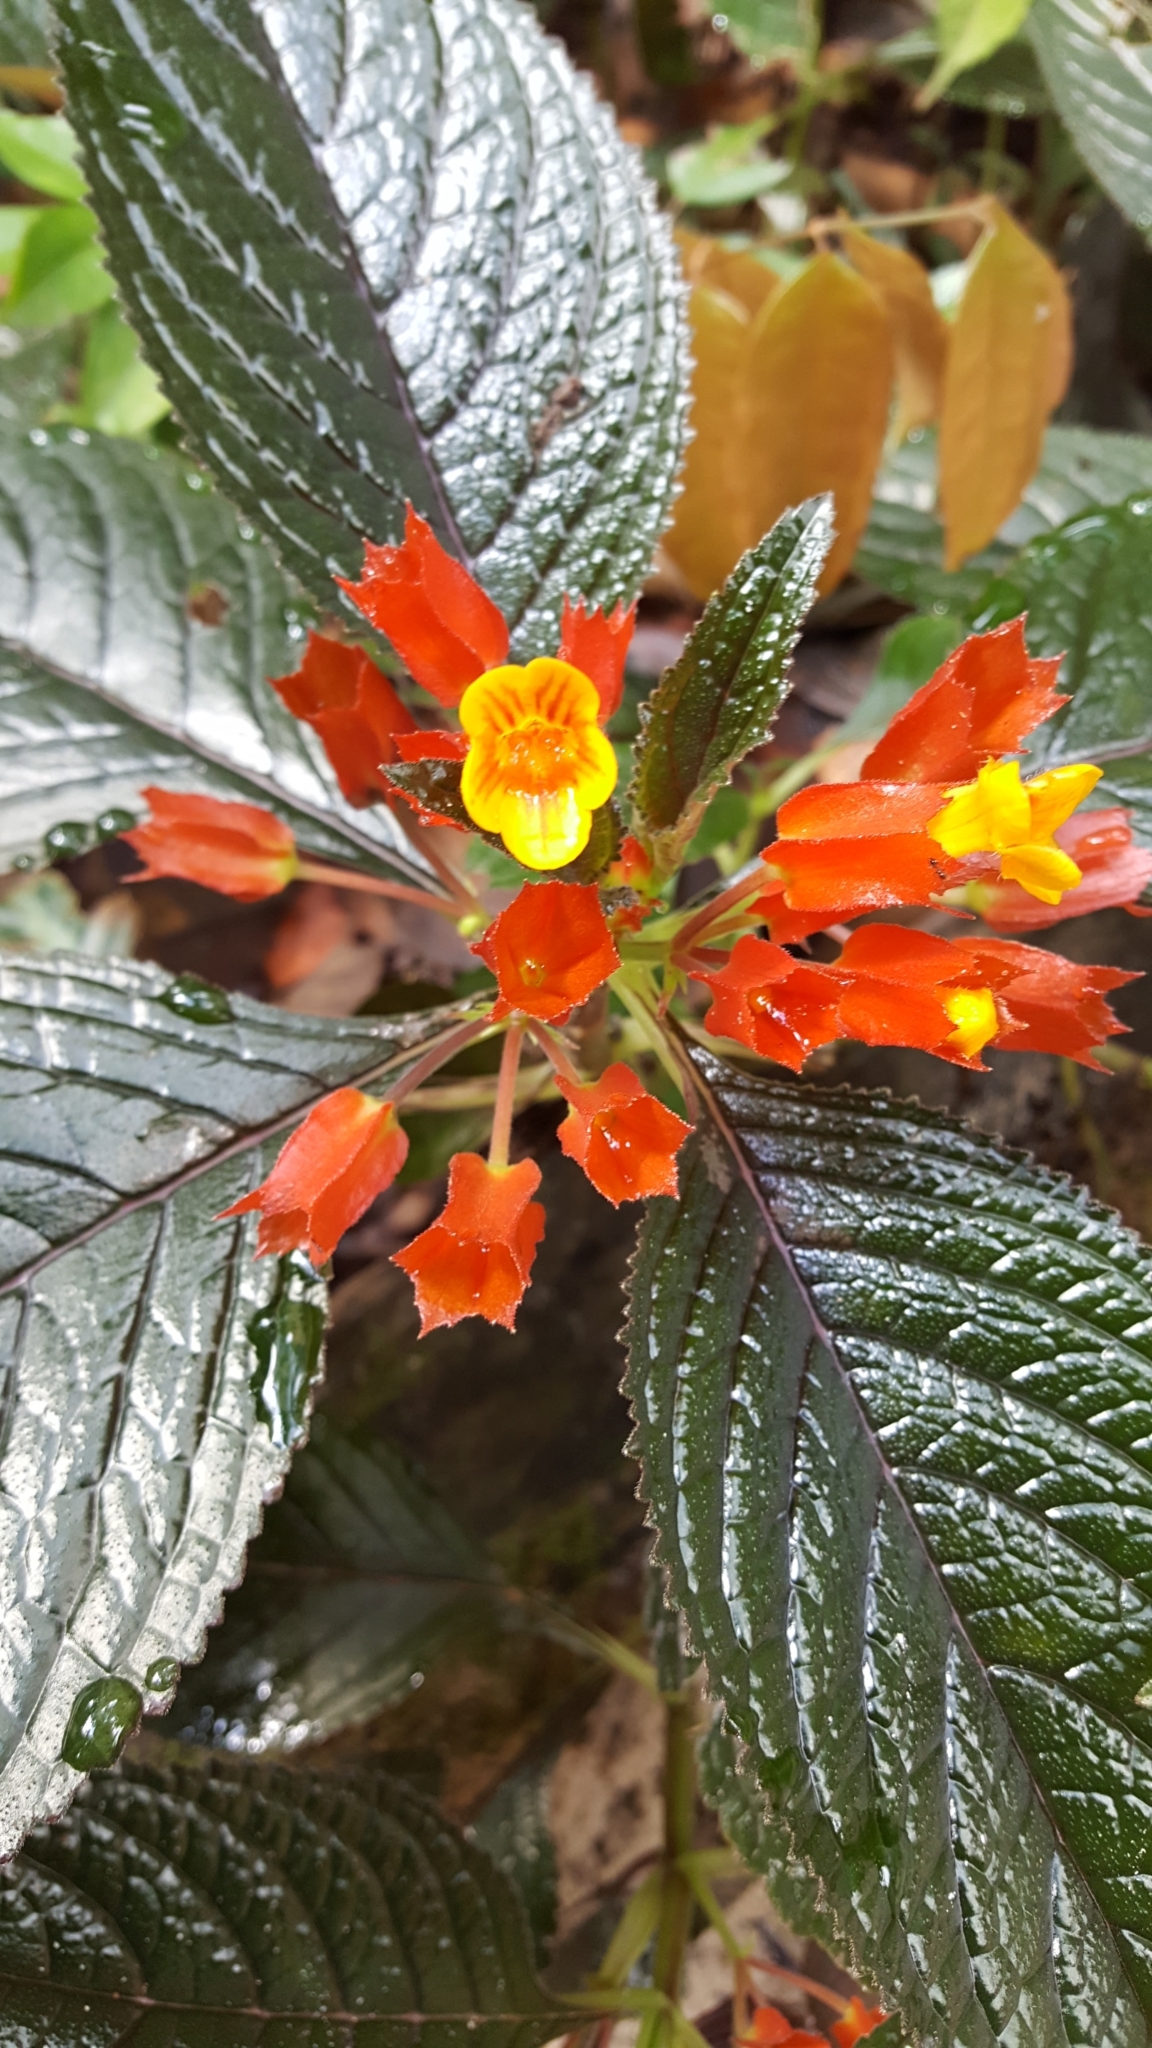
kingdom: Plantae
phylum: Tracheophyta
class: Magnoliopsida
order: Lamiales
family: Gesneriaceae
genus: Chrysothemis
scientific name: Chrysothemis pulchella
